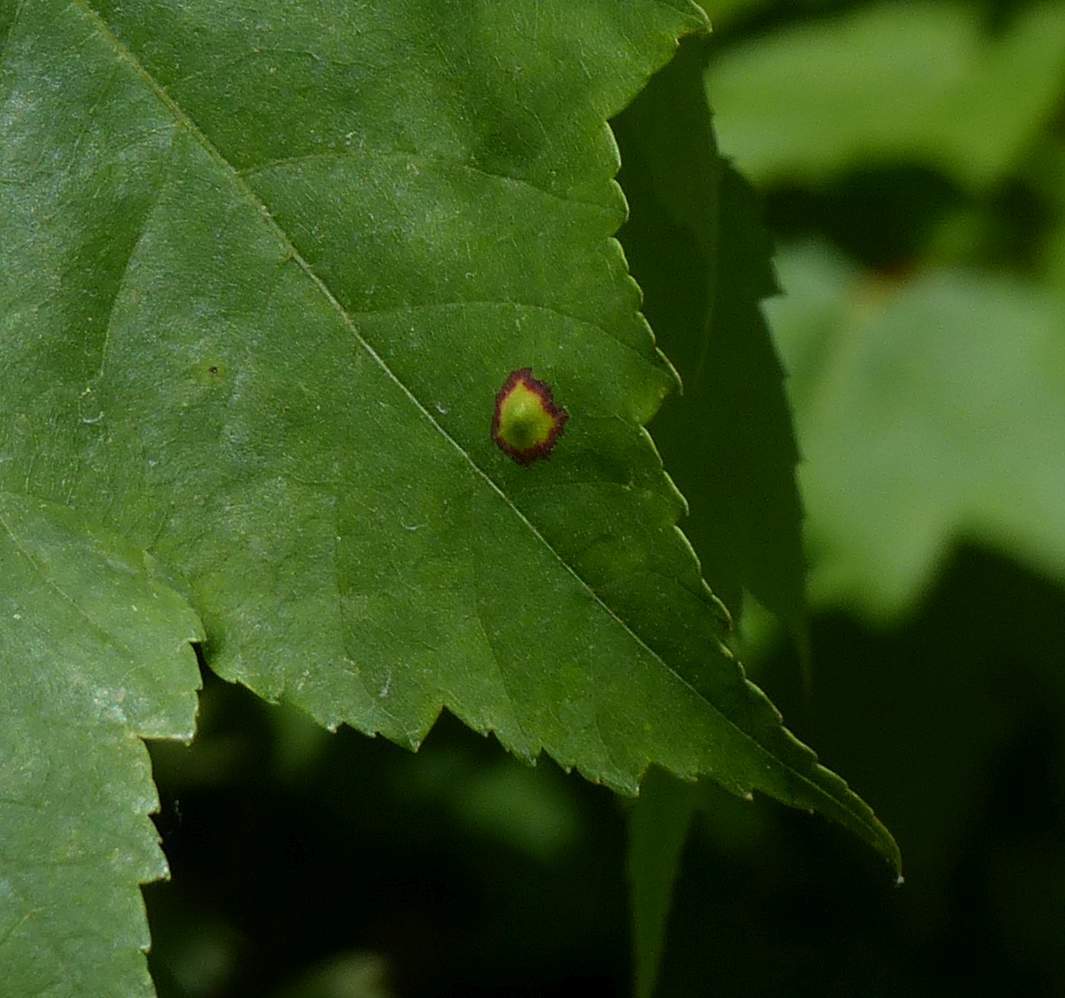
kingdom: Animalia
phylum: Arthropoda
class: Insecta
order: Diptera
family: Cecidomyiidae
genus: Acericecis
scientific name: Acericecis ocellaris
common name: Ocellate gall midge
